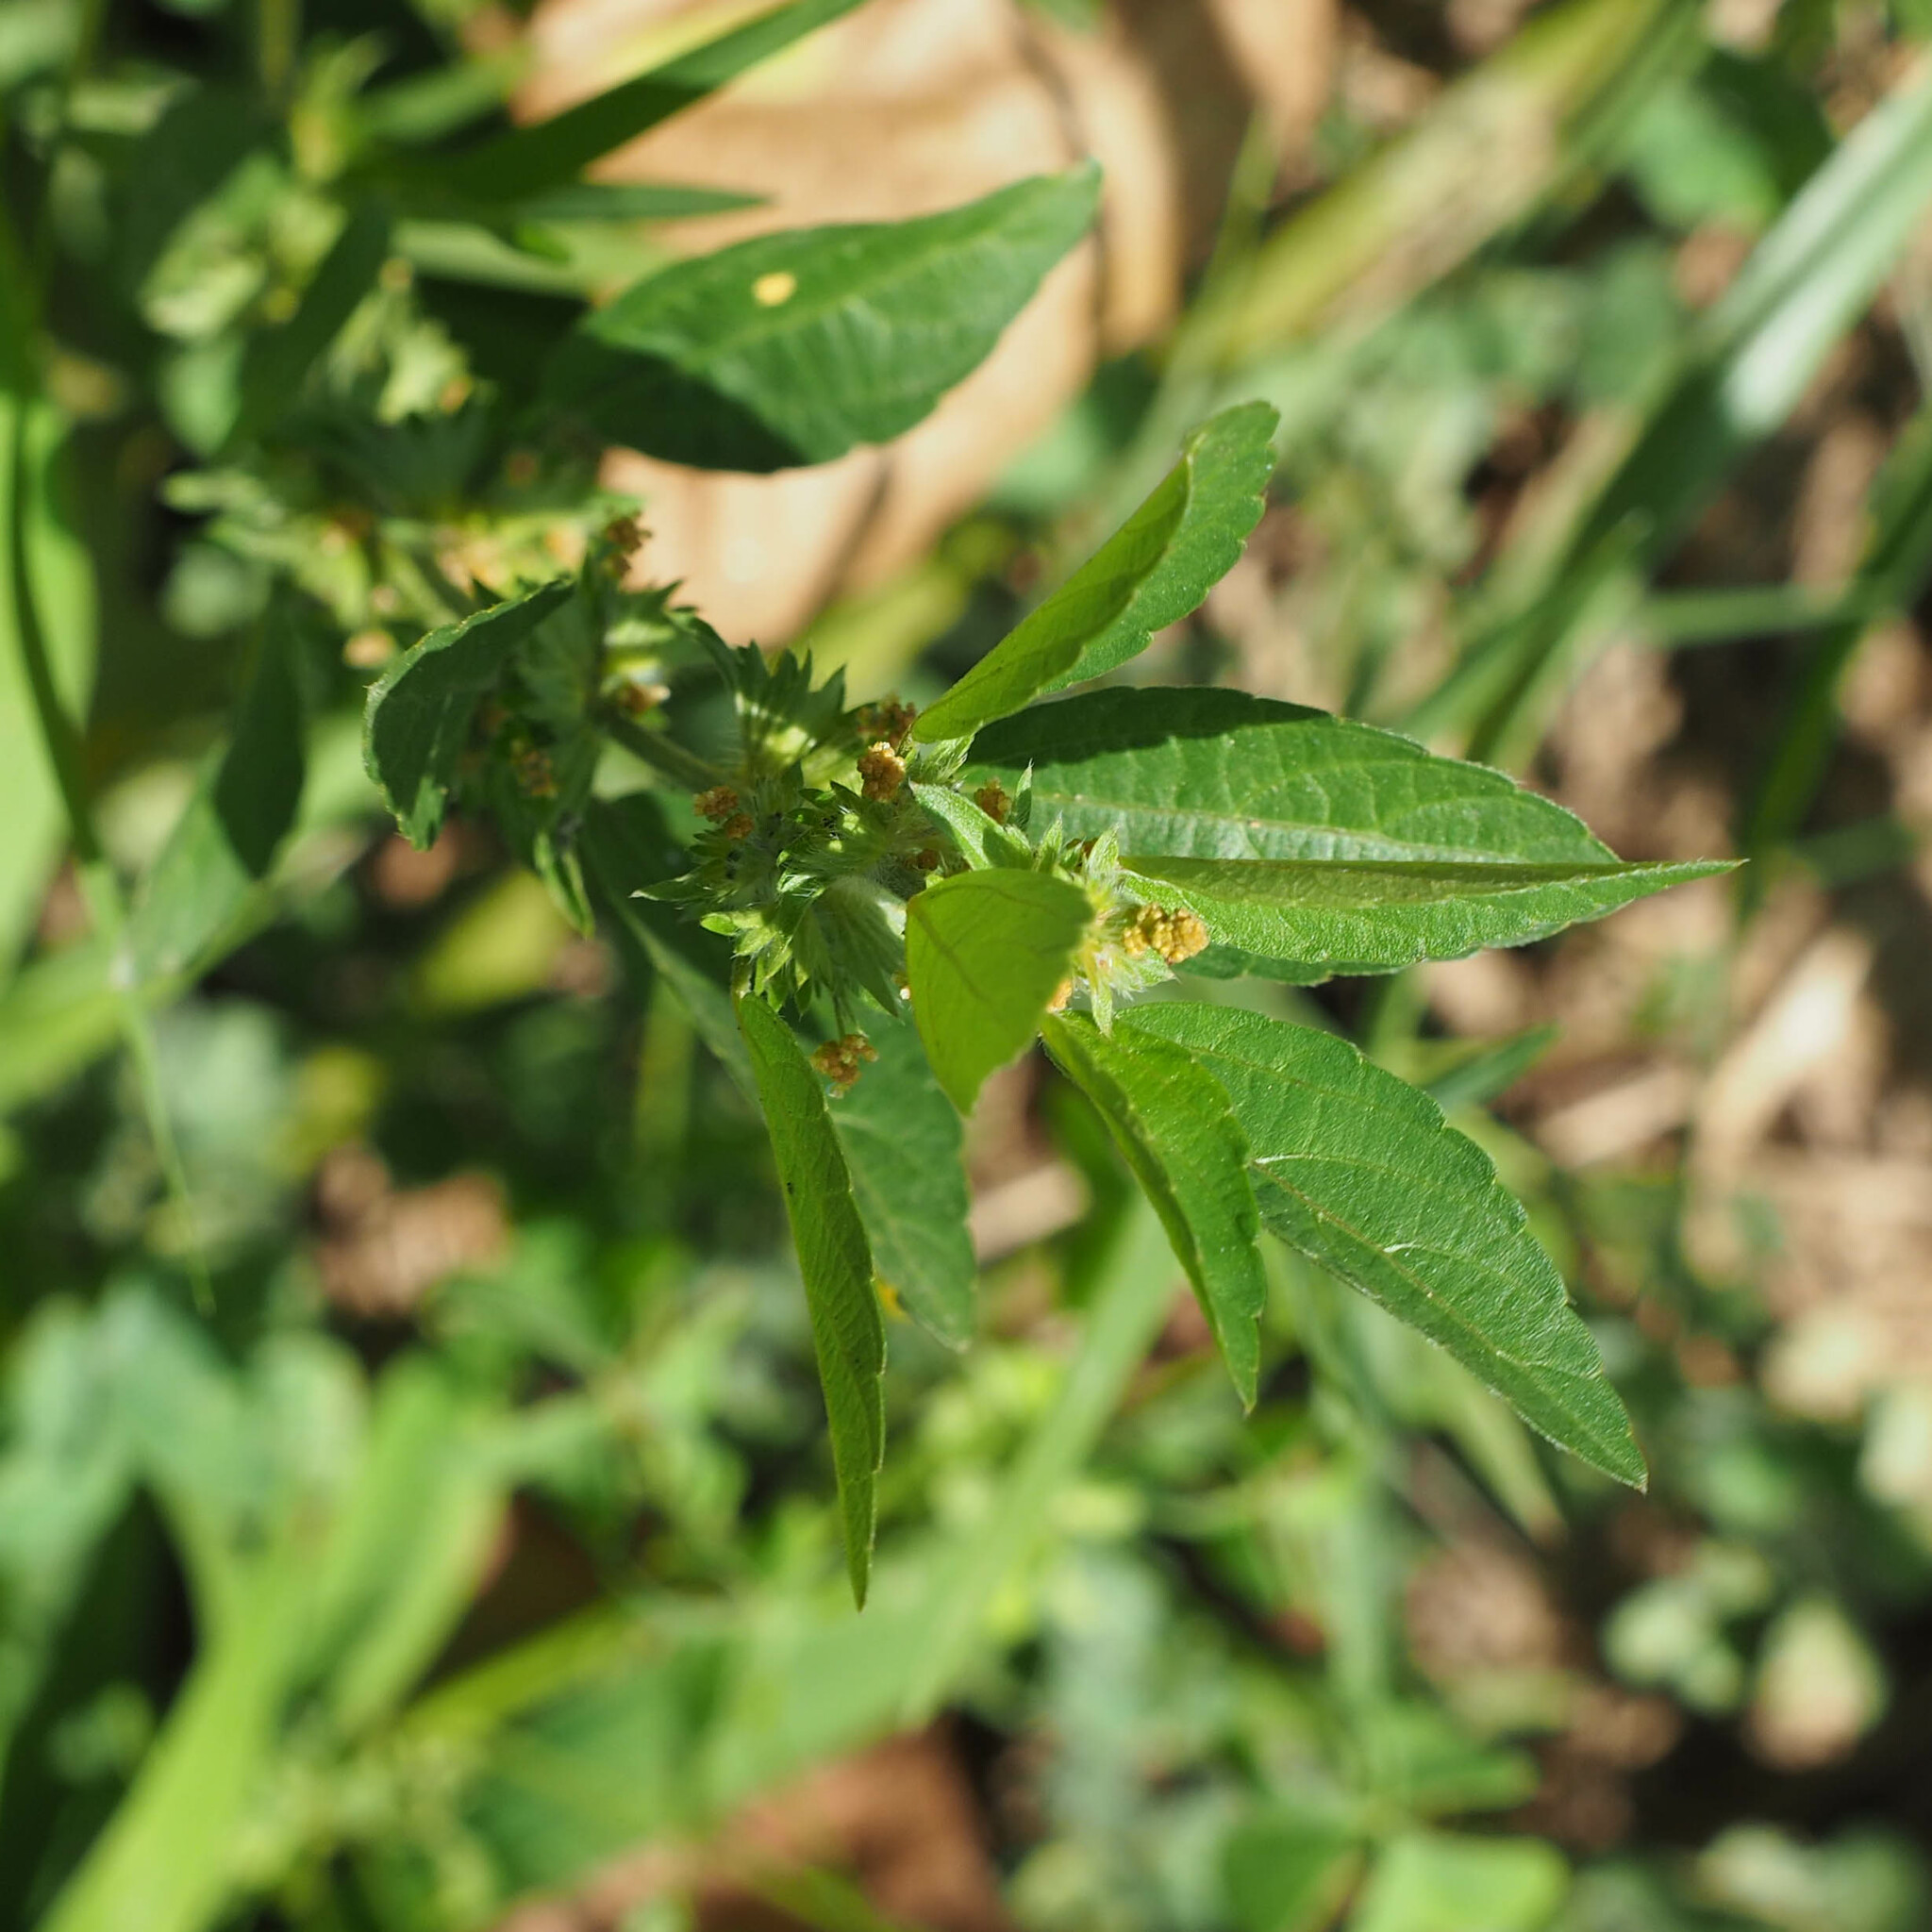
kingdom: Plantae
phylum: Tracheophyta
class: Magnoliopsida
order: Malpighiales
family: Euphorbiaceae
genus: Acalypha
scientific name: Acalypha virginica
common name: Virginia copperleaf
